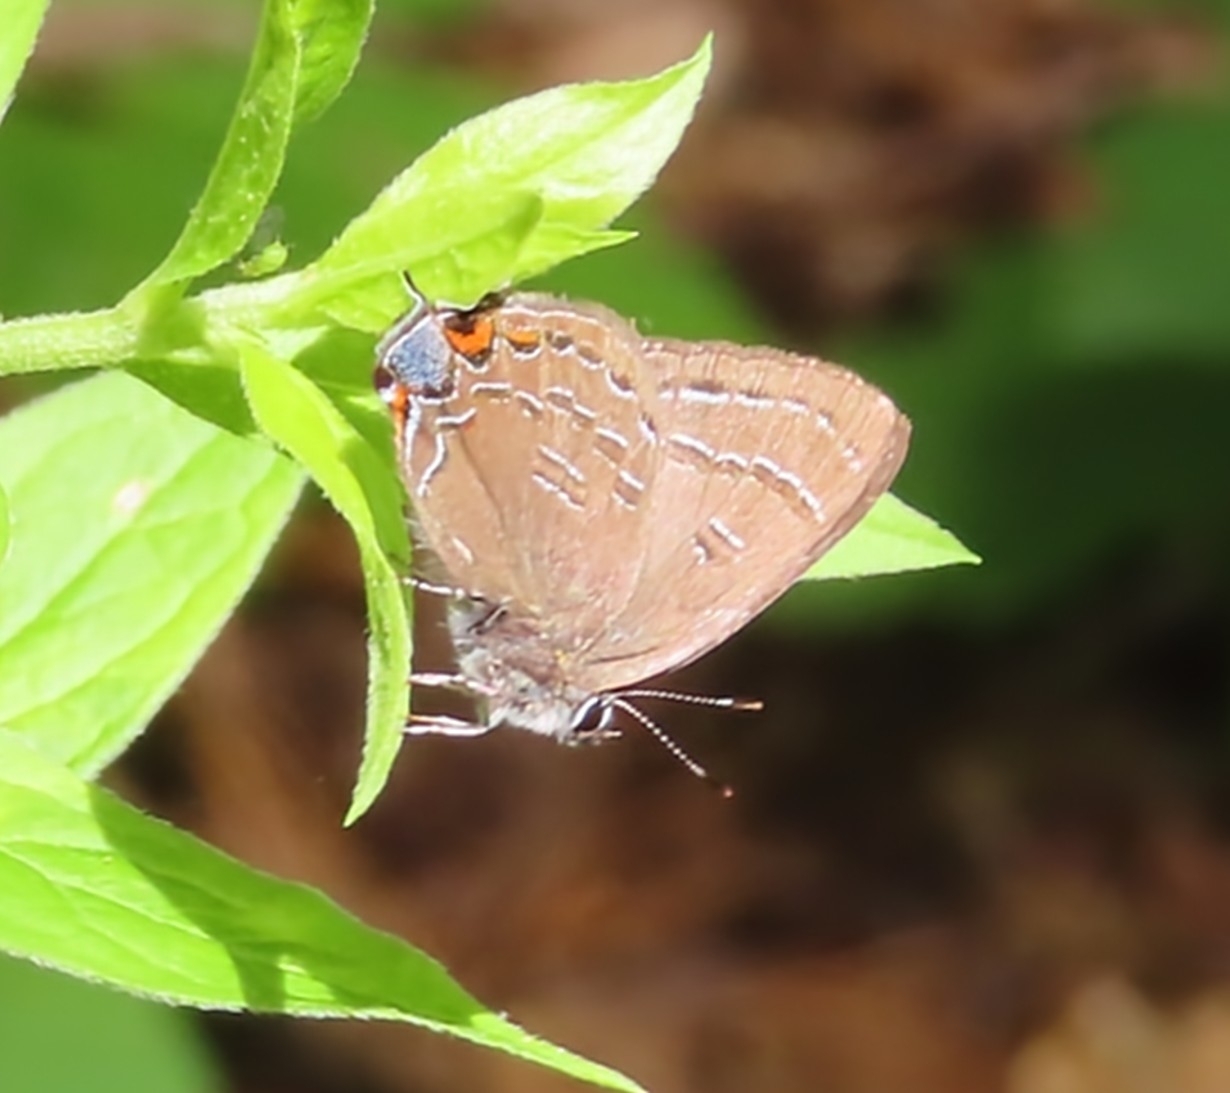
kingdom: Animalia
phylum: Arthropoda
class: Insecta
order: Lepidoptera
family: Lycaenidae
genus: Satyrium
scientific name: Satyrium calanus
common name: Banded hairstreak
